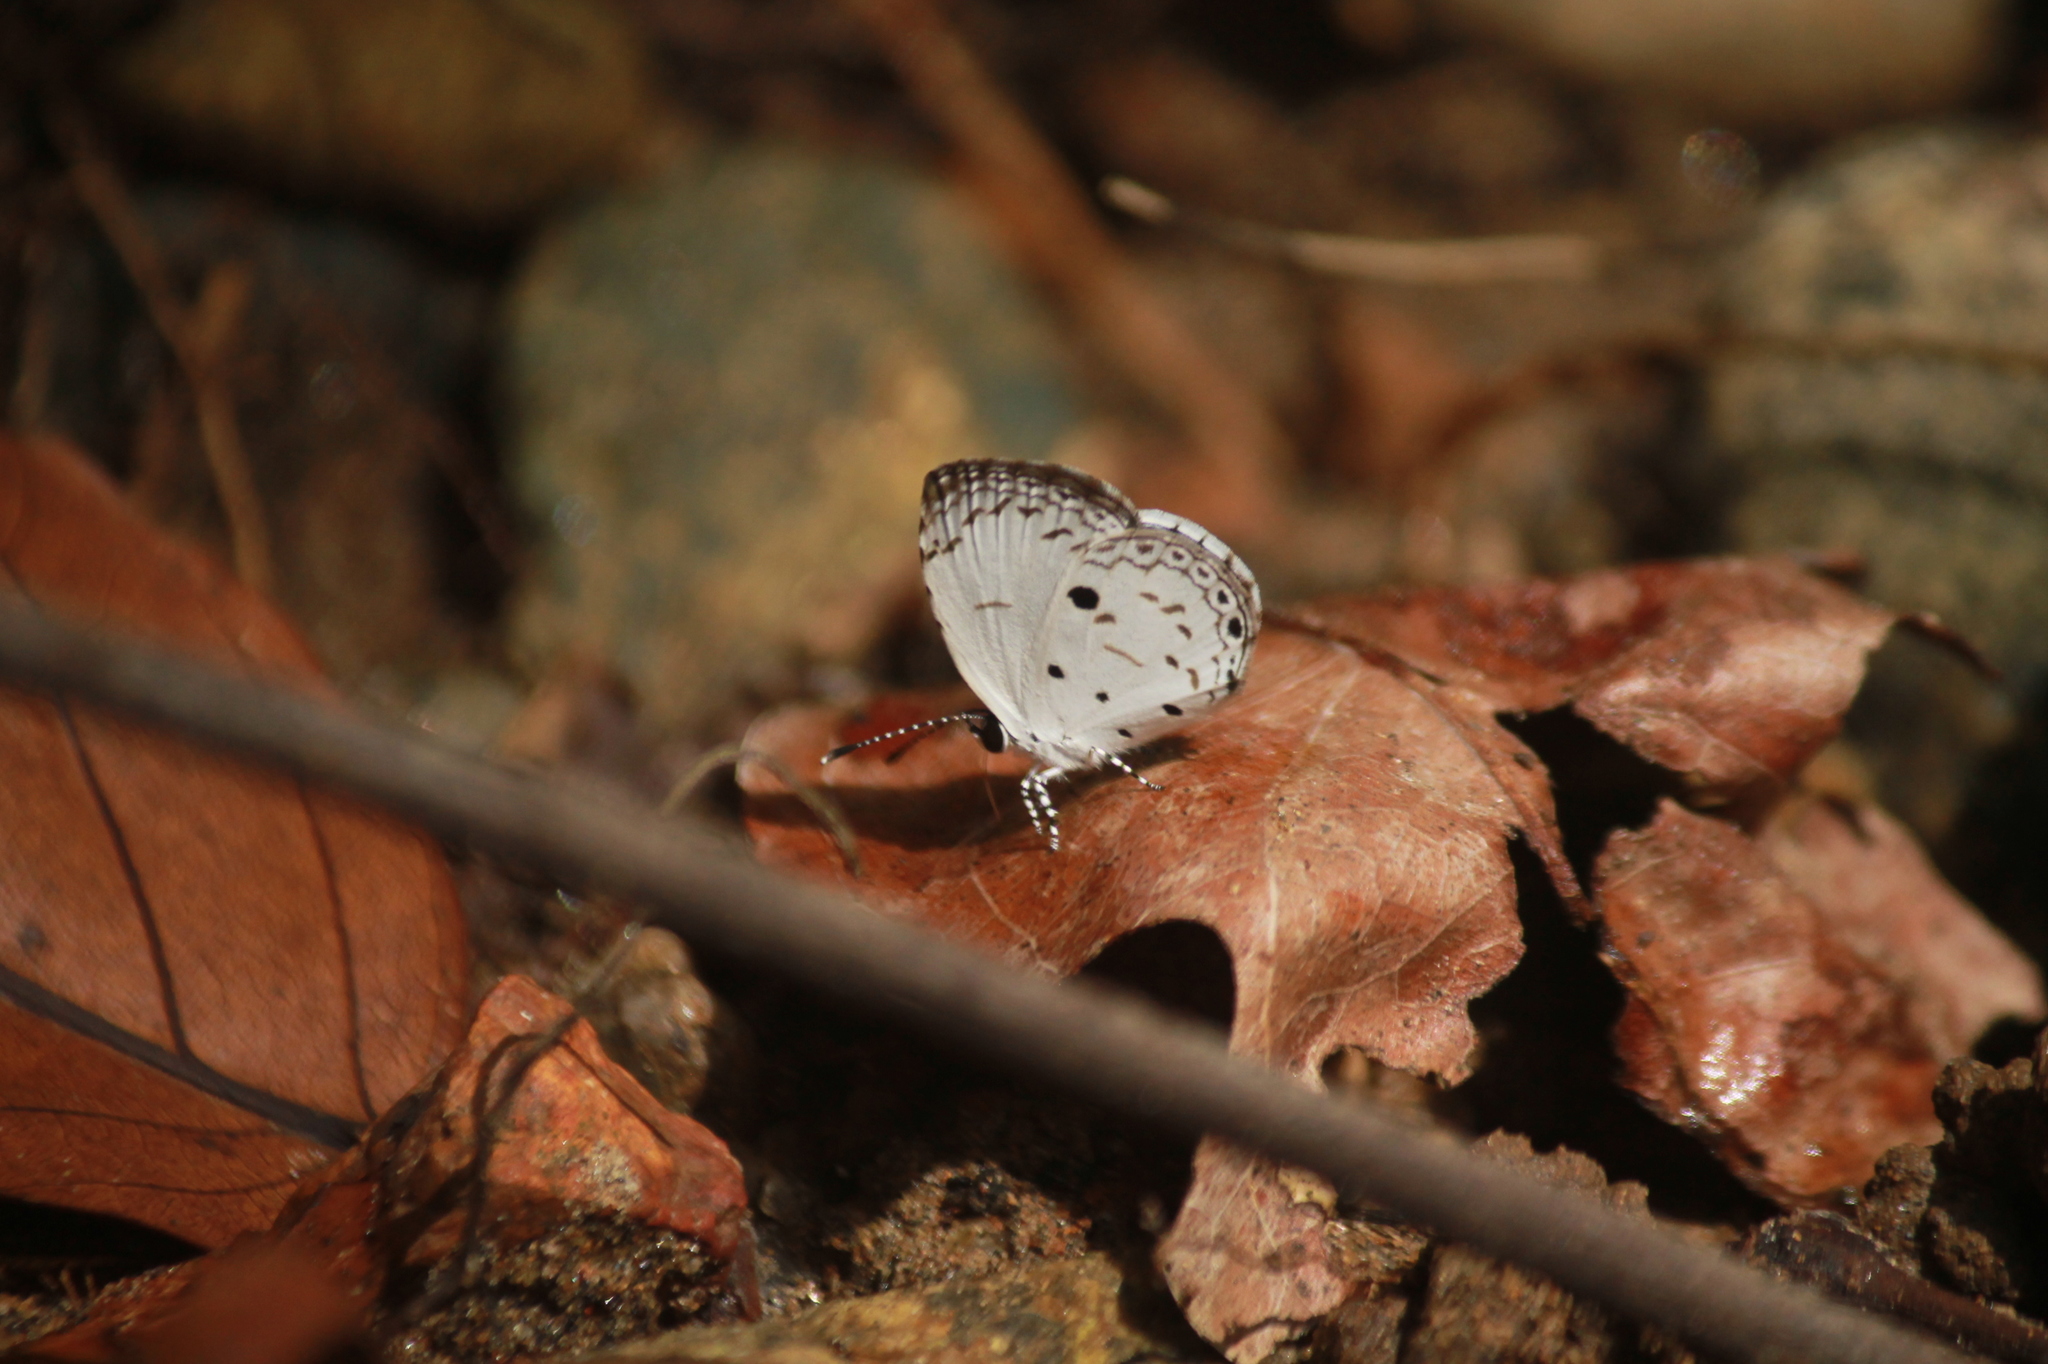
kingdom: Animalia
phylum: Arthropoda
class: Insecta
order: Lepidoptera
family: Lycaenidae
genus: Neopithecops
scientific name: Neopithecops zalmora
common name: Quaker
